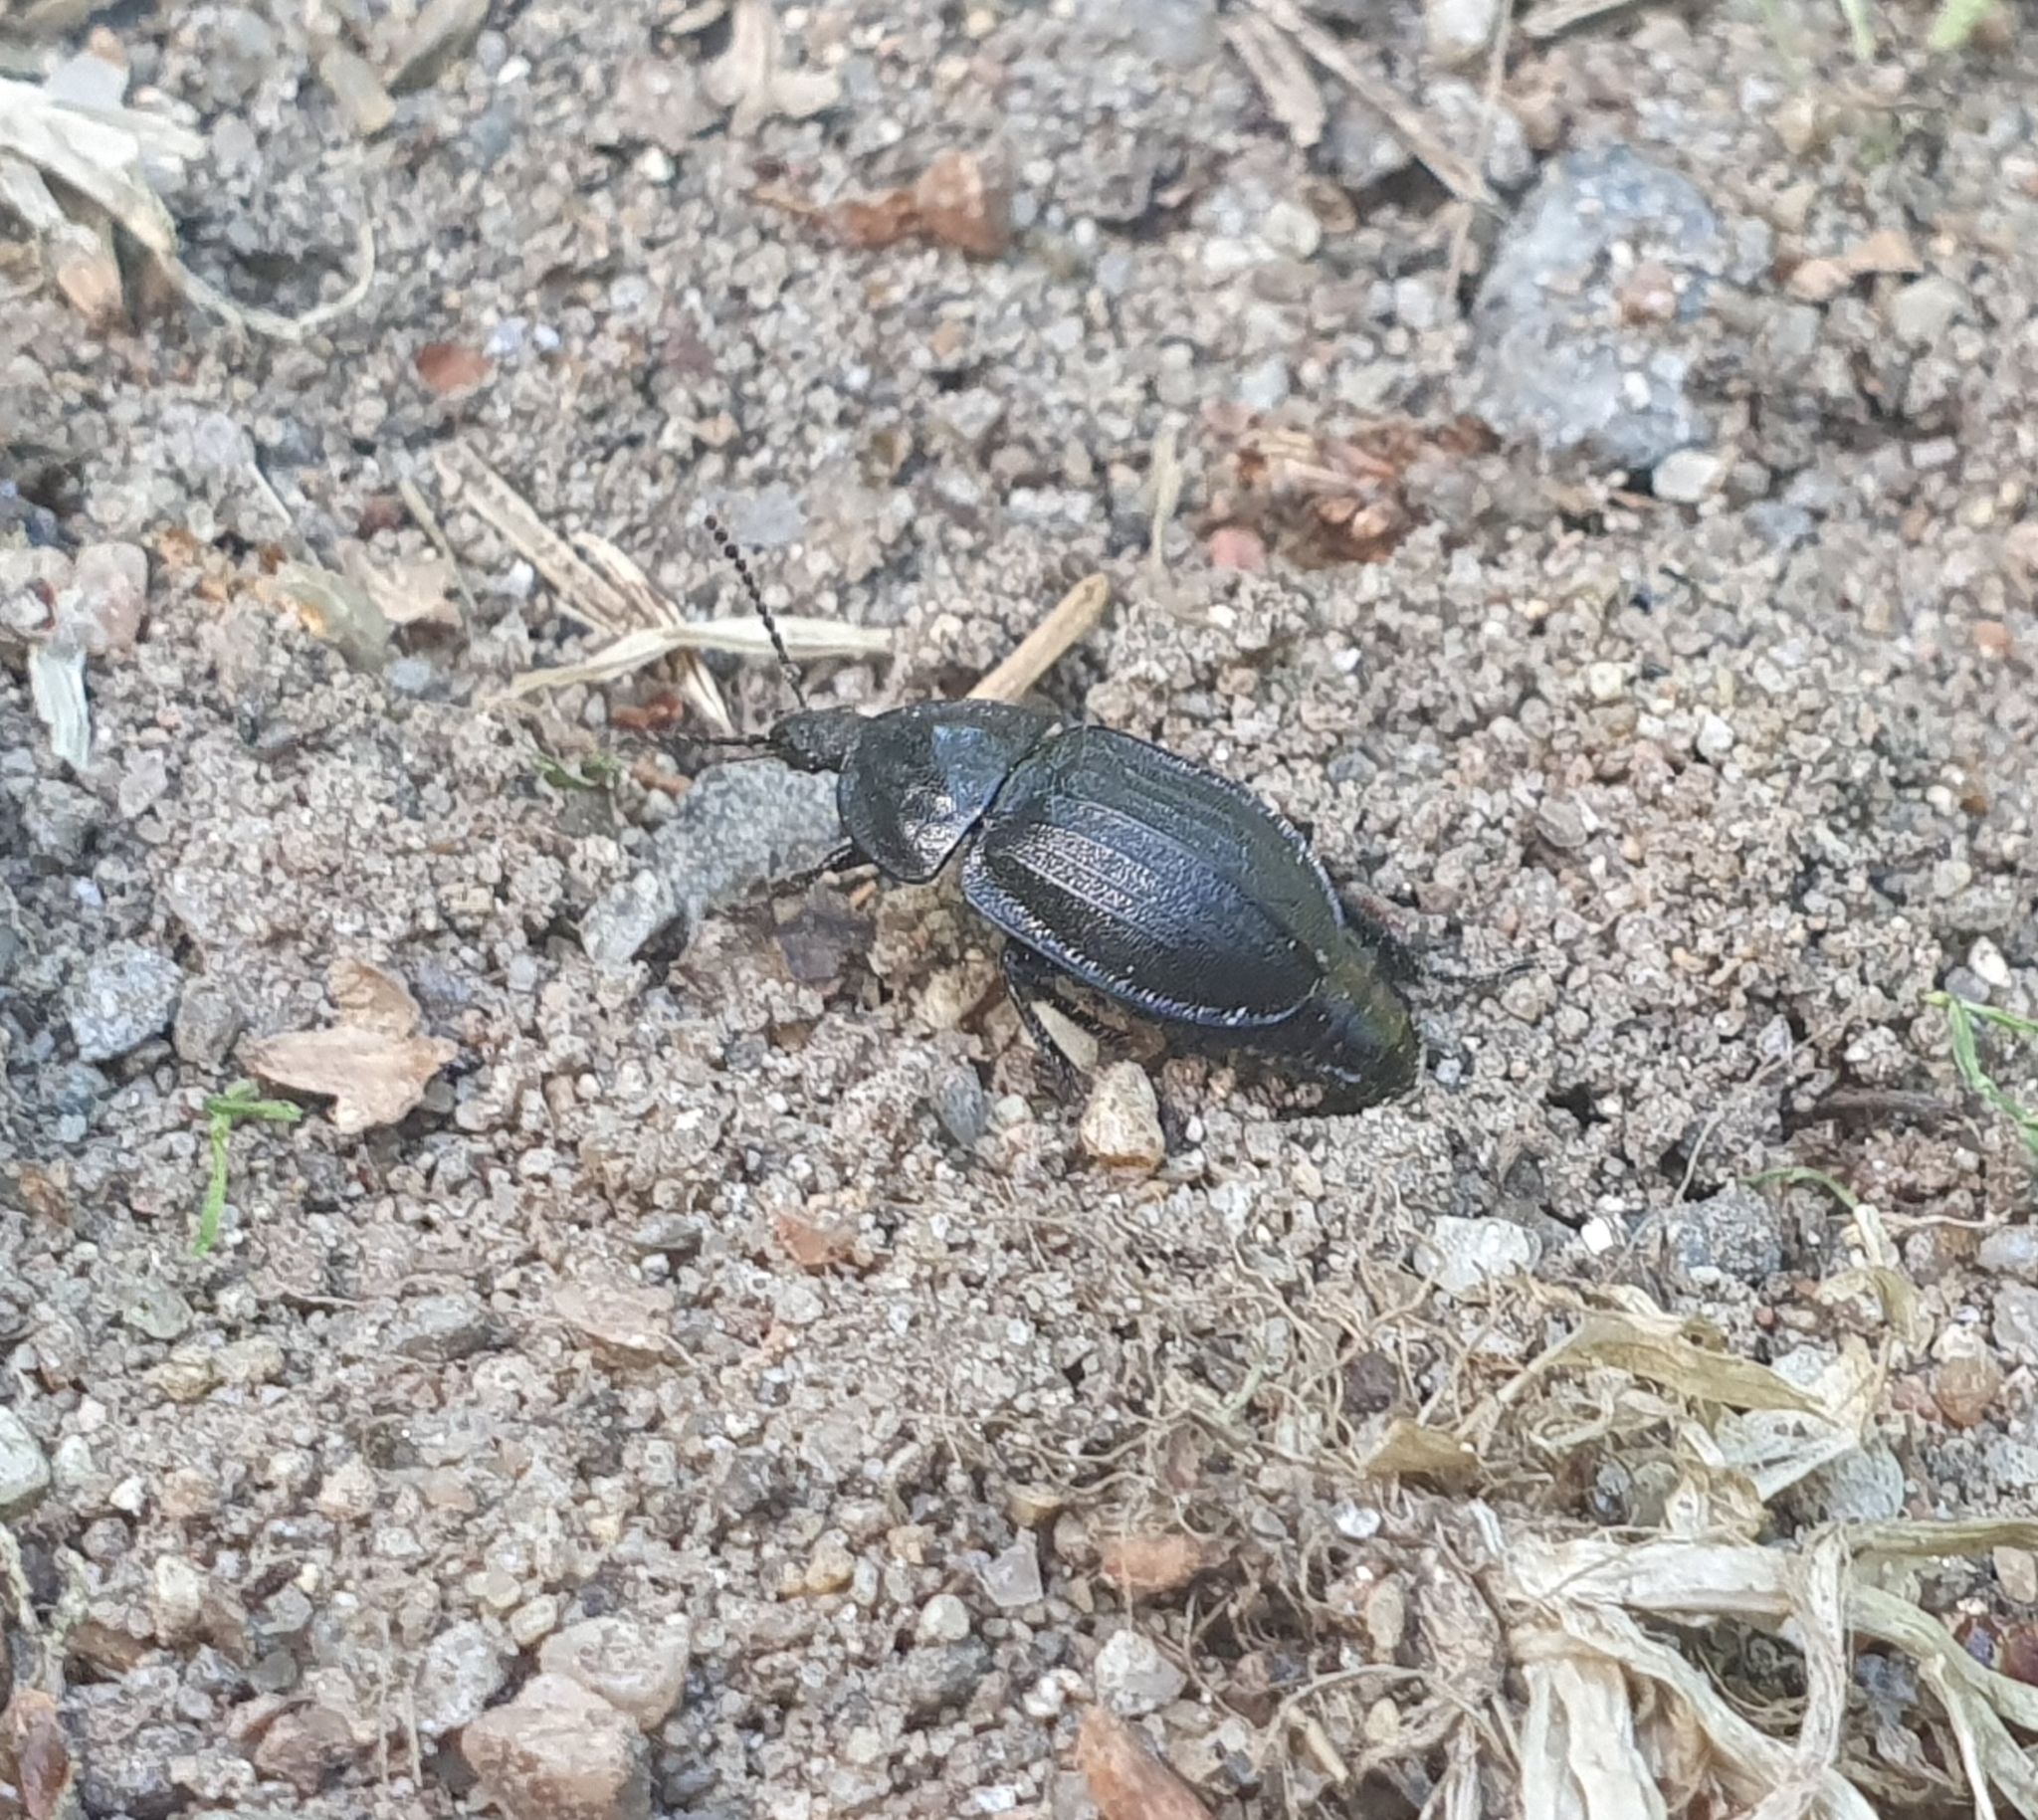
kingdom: Animalia
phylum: Arthropoda
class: Insecta
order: Coleoptera
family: Staphylinidae
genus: Silpha
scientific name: Silpha atrata
